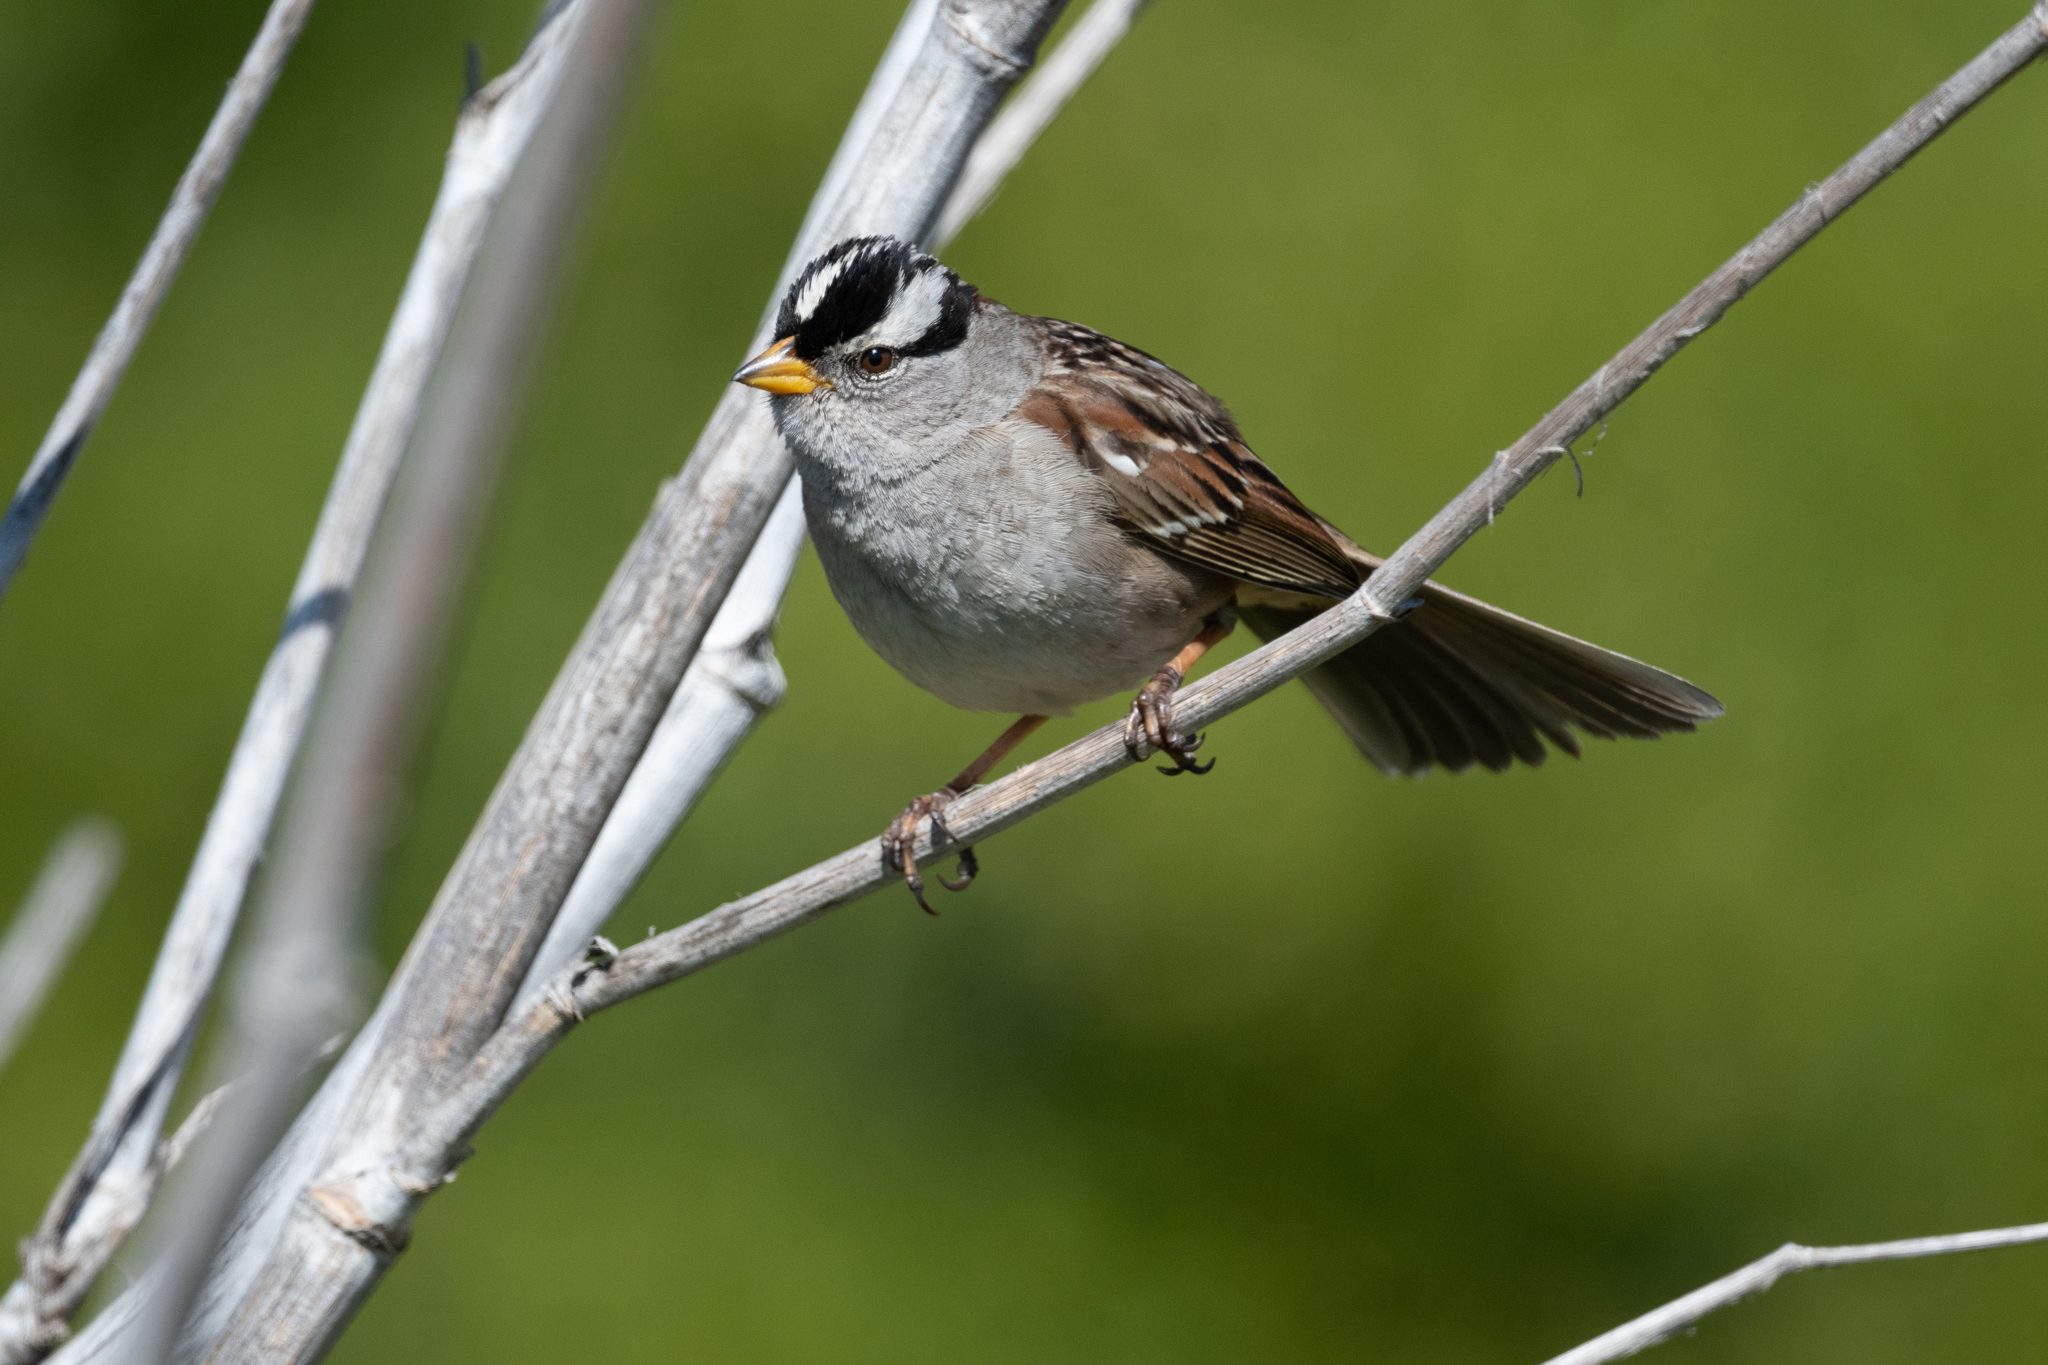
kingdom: Animalia
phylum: Chordata
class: Aves
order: Passeriformes
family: Passerellidae
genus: Zonotrichia
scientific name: Zonotrichia leucophrys
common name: White-crowned sparrow
